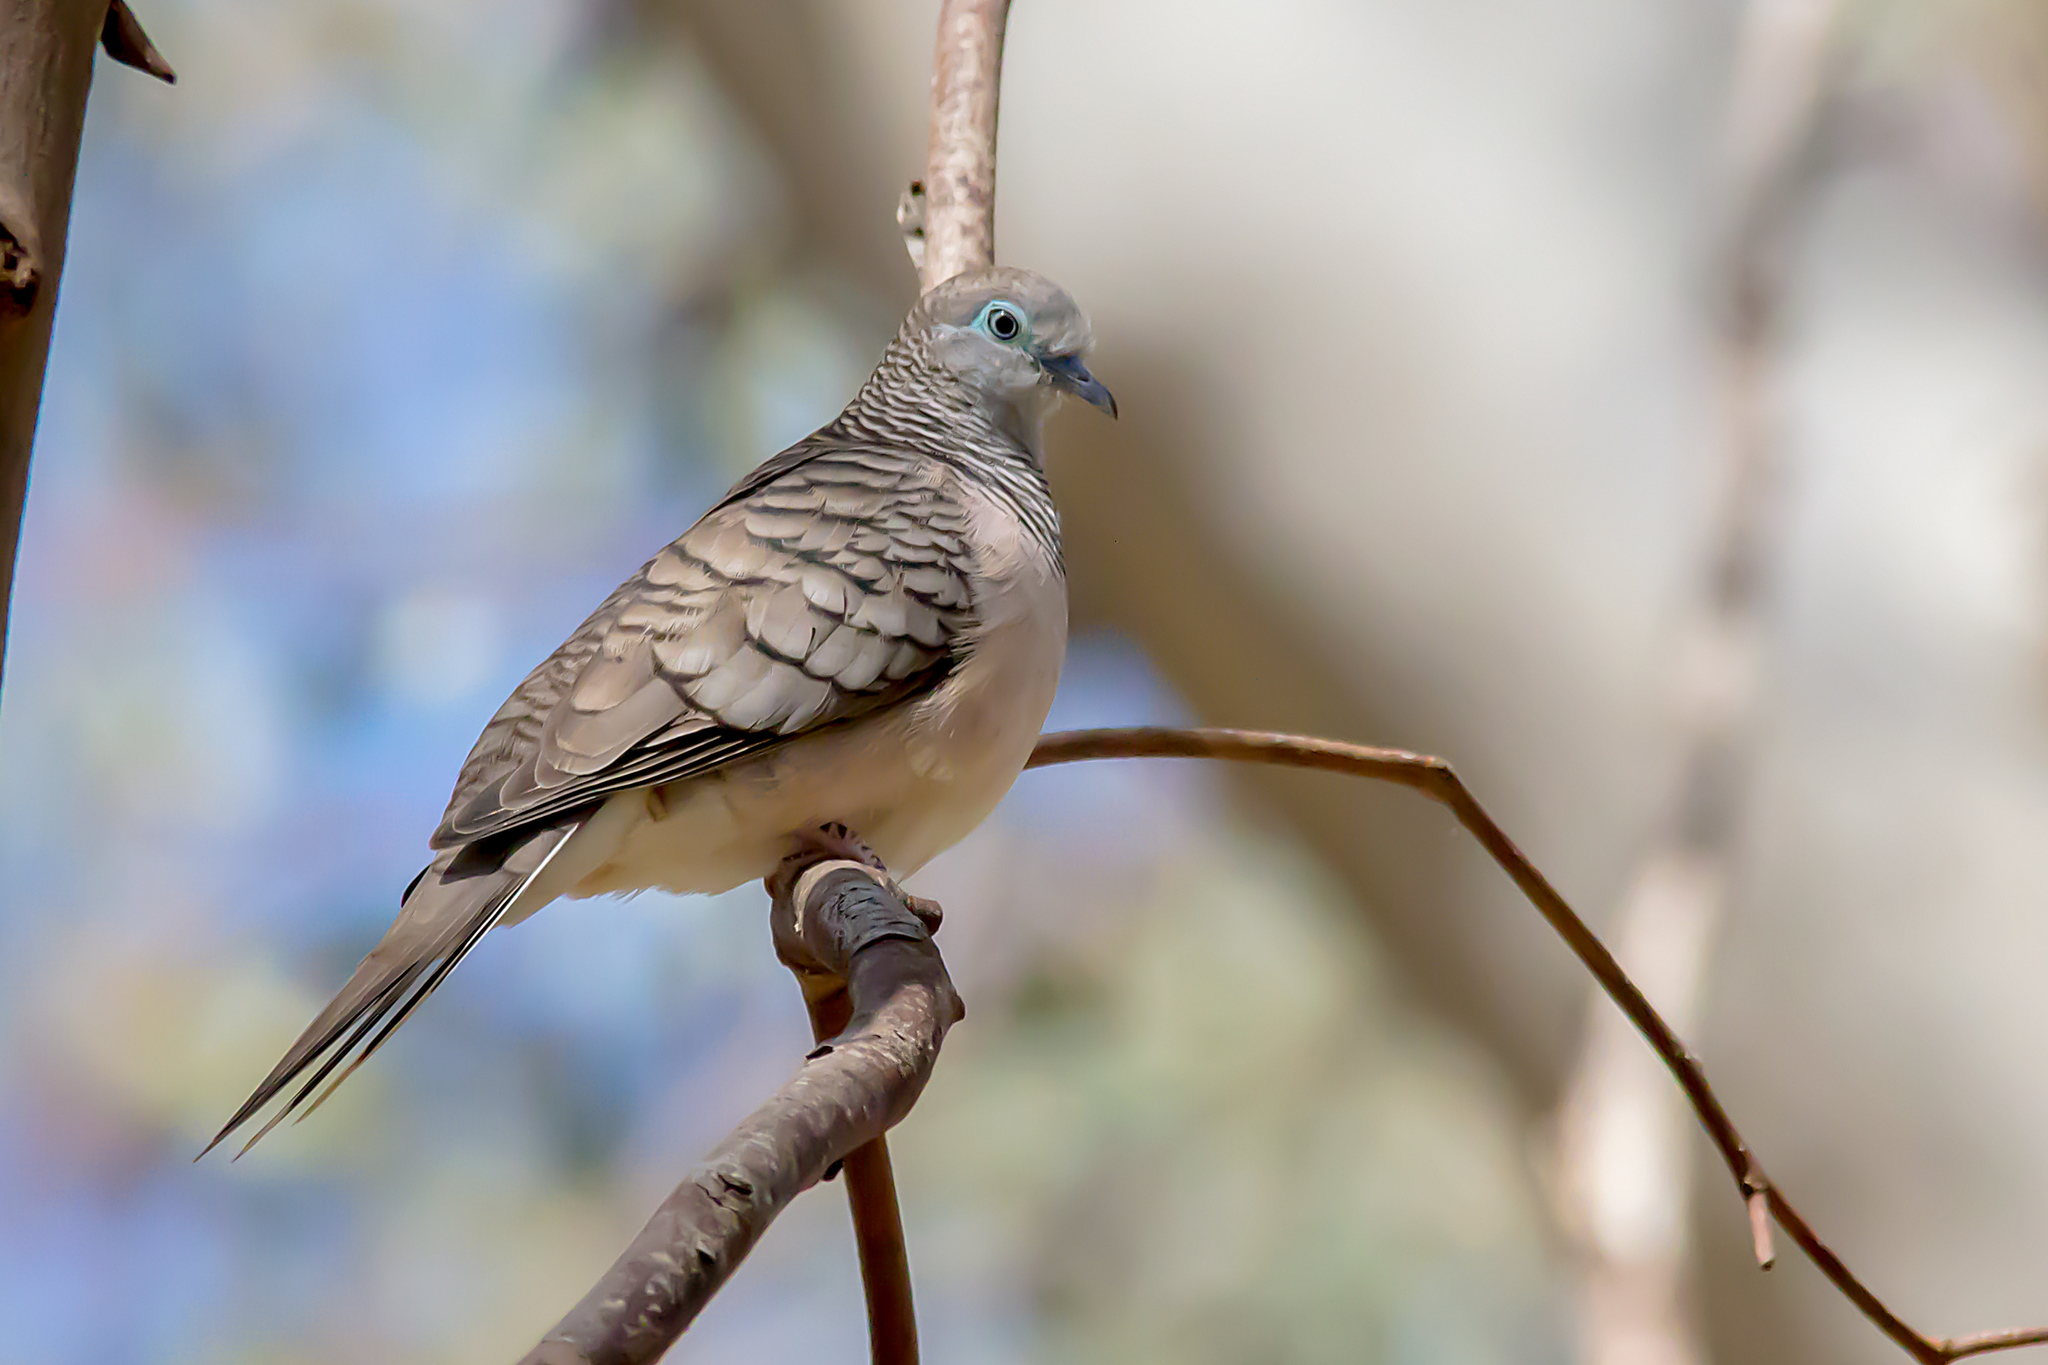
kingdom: Animalia
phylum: Chordata
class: Aves
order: Columbiformes
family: Columbidae
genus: Geopelia
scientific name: Geopelia placida
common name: Peaceful dove
